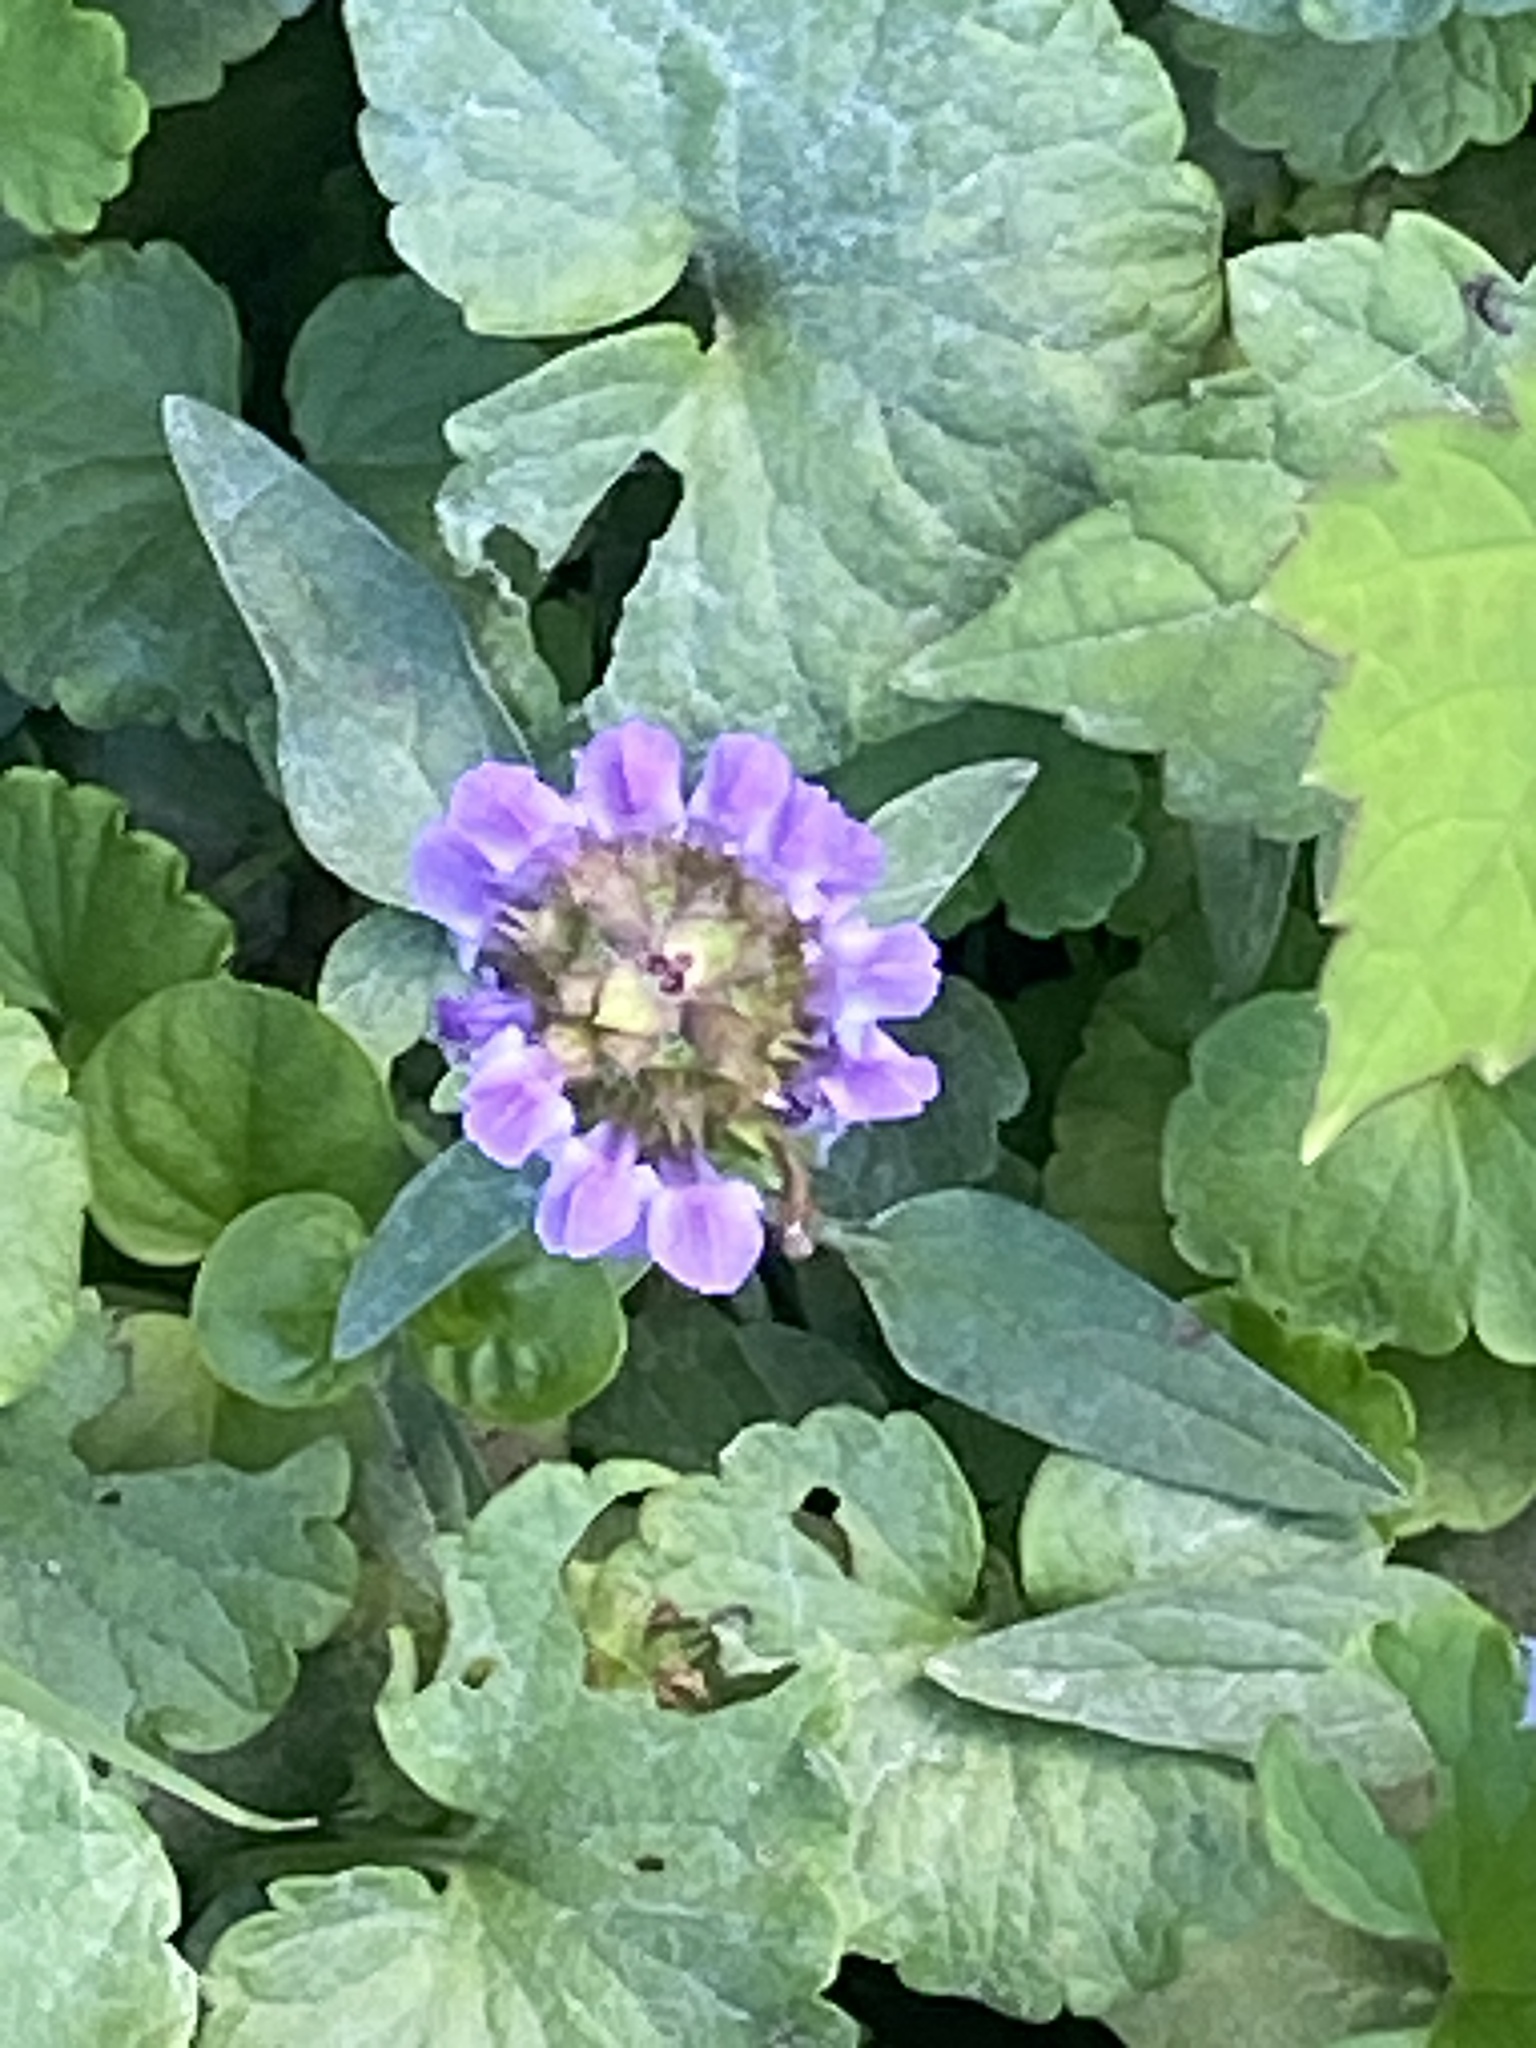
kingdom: Plantae
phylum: Tracheophyta
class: Magnoliopsida
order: Lamiales
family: Lamiaceae
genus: Prunella
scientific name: Prunella vulgaris
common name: Heal-all
